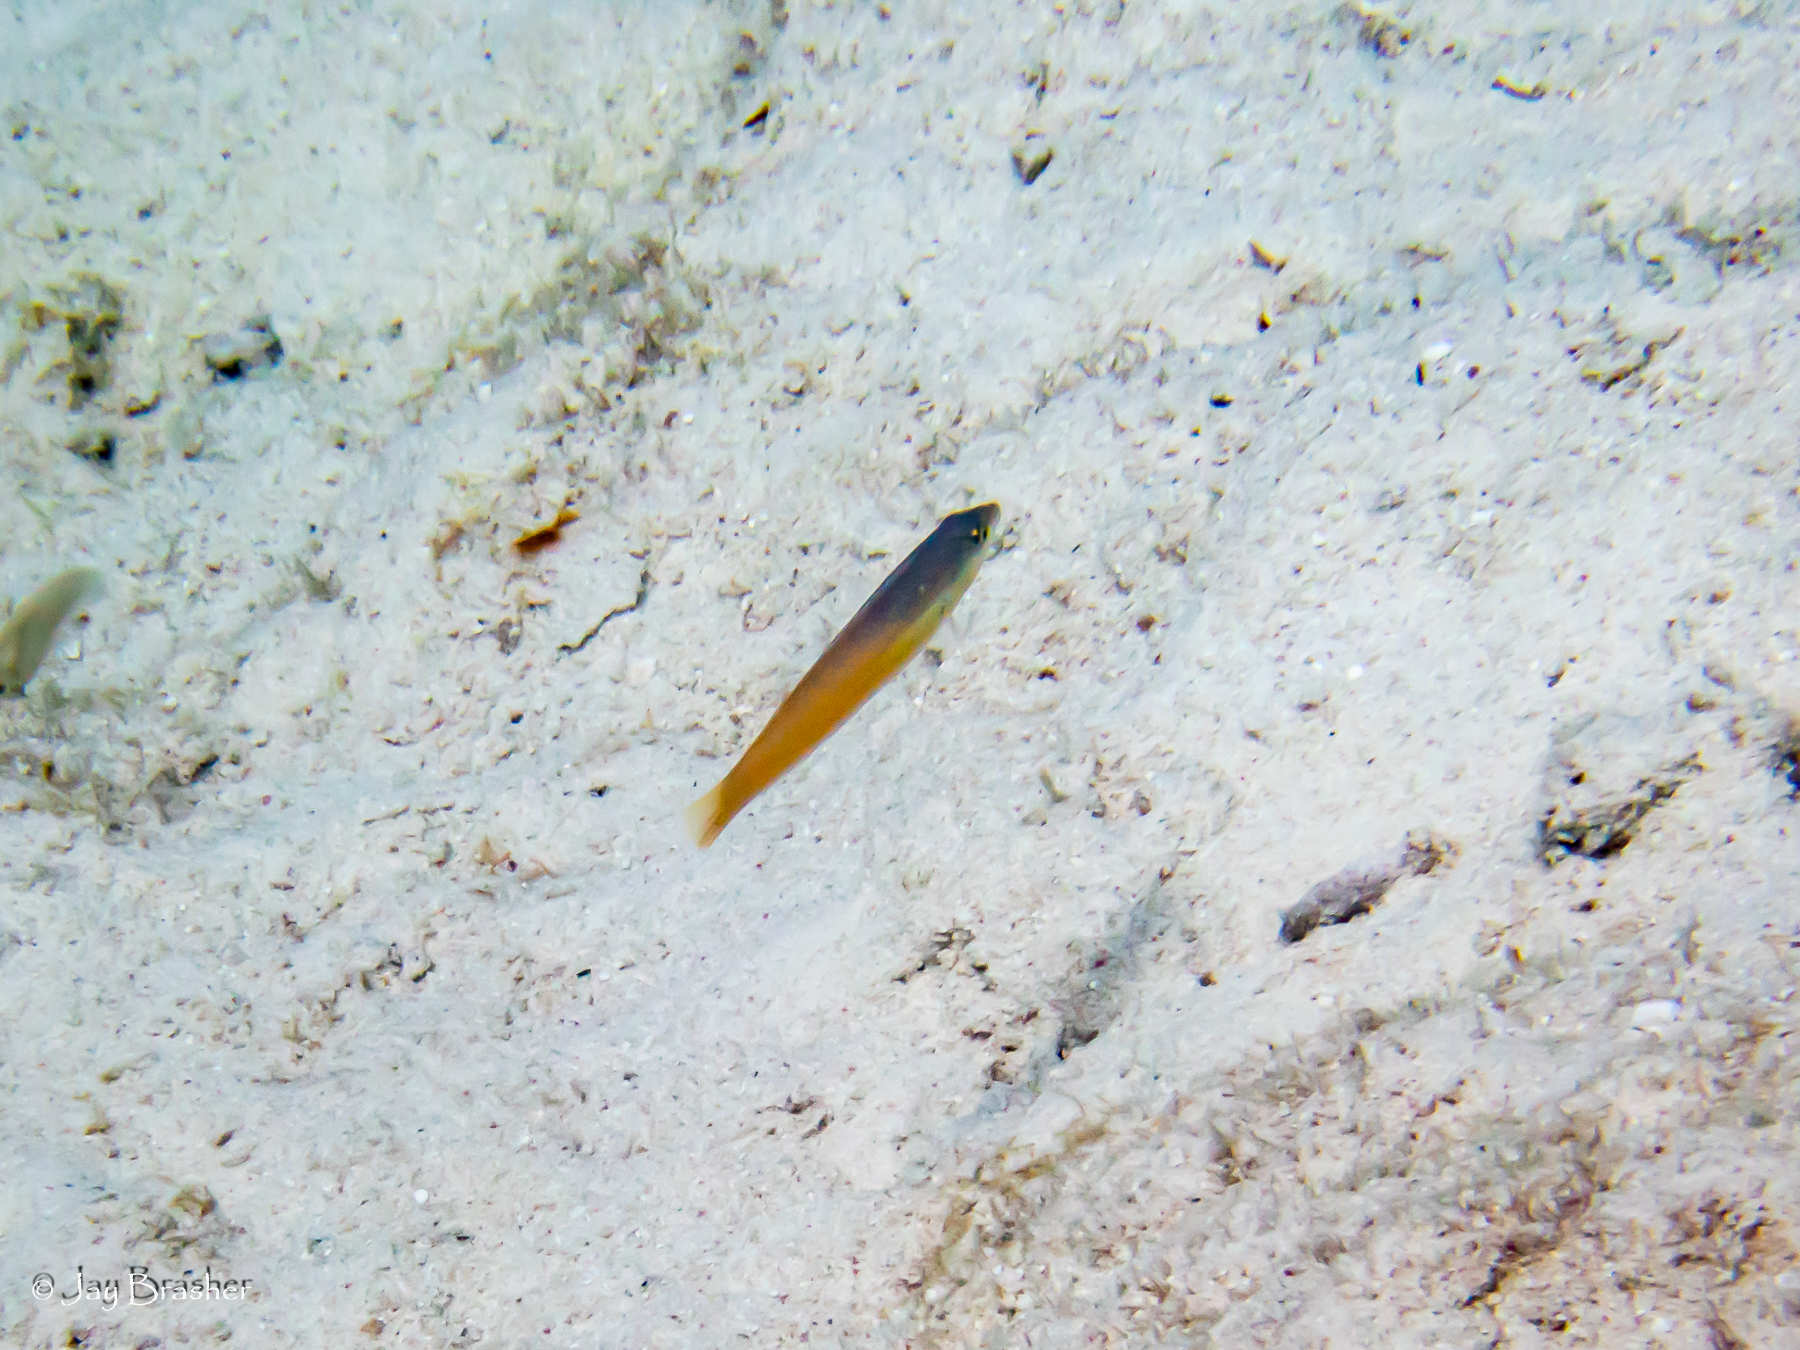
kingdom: Animalia
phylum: Chordata
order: Perciformes
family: Labridae
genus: Halichoeres
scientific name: Halichoeres garnoti
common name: Yellowhead wrasse
